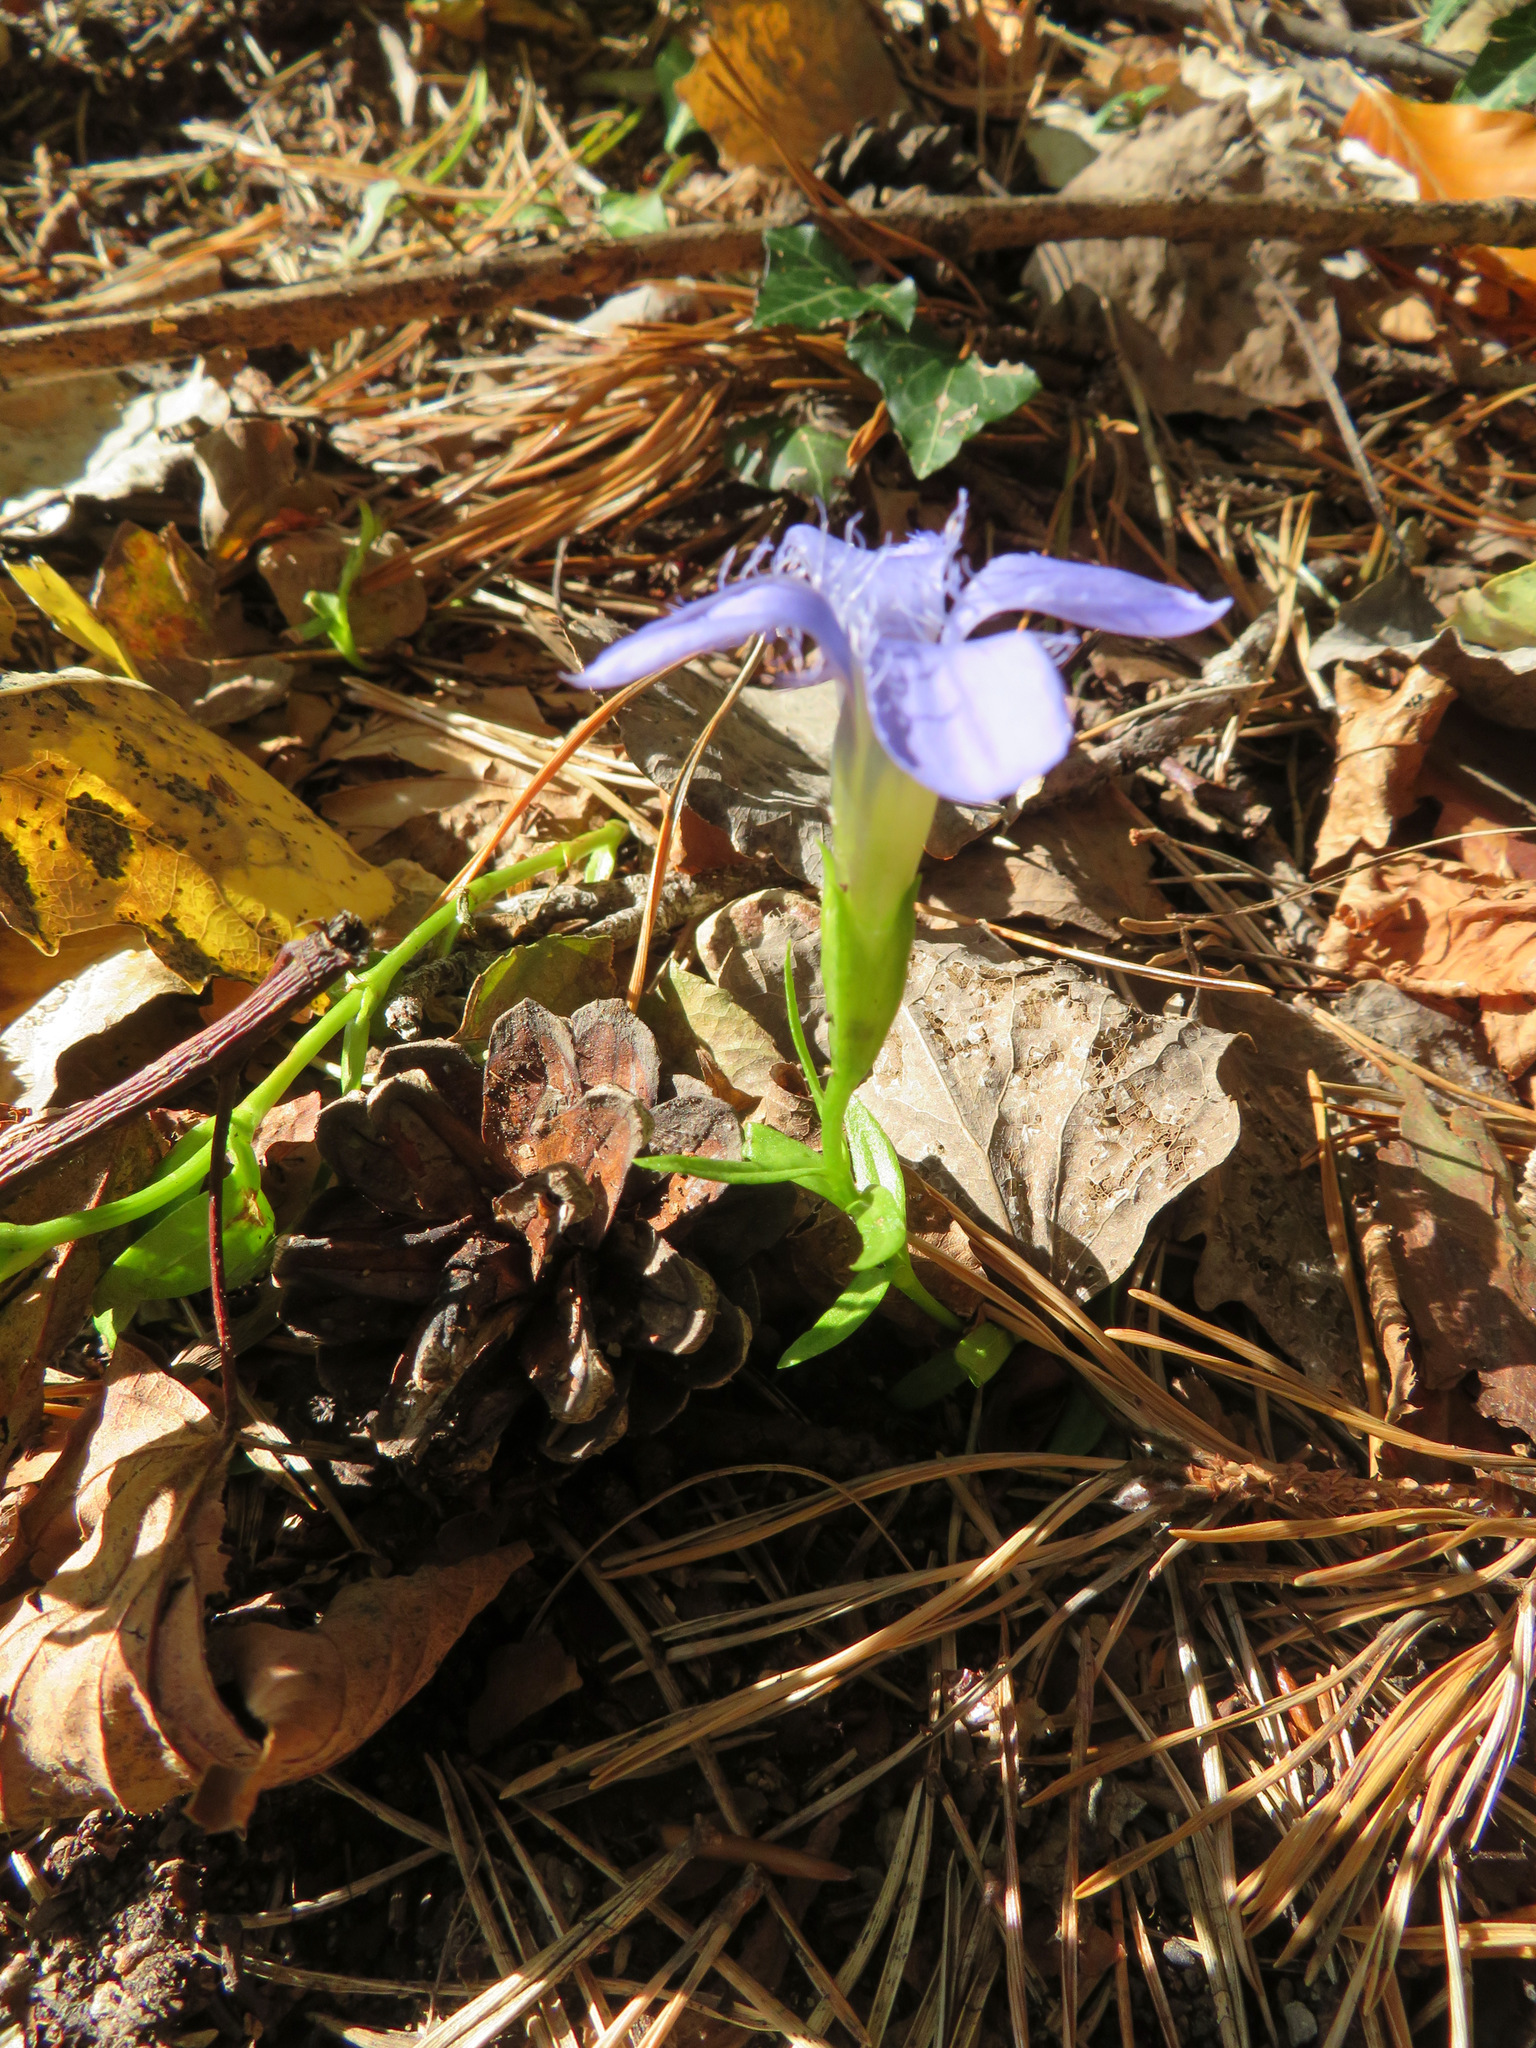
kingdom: Plantae
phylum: Tracheophyta
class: Magnoliopsida
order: Gentianales
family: Gentianaceae
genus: Gentianopsis
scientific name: Gentianopsis ciliata
